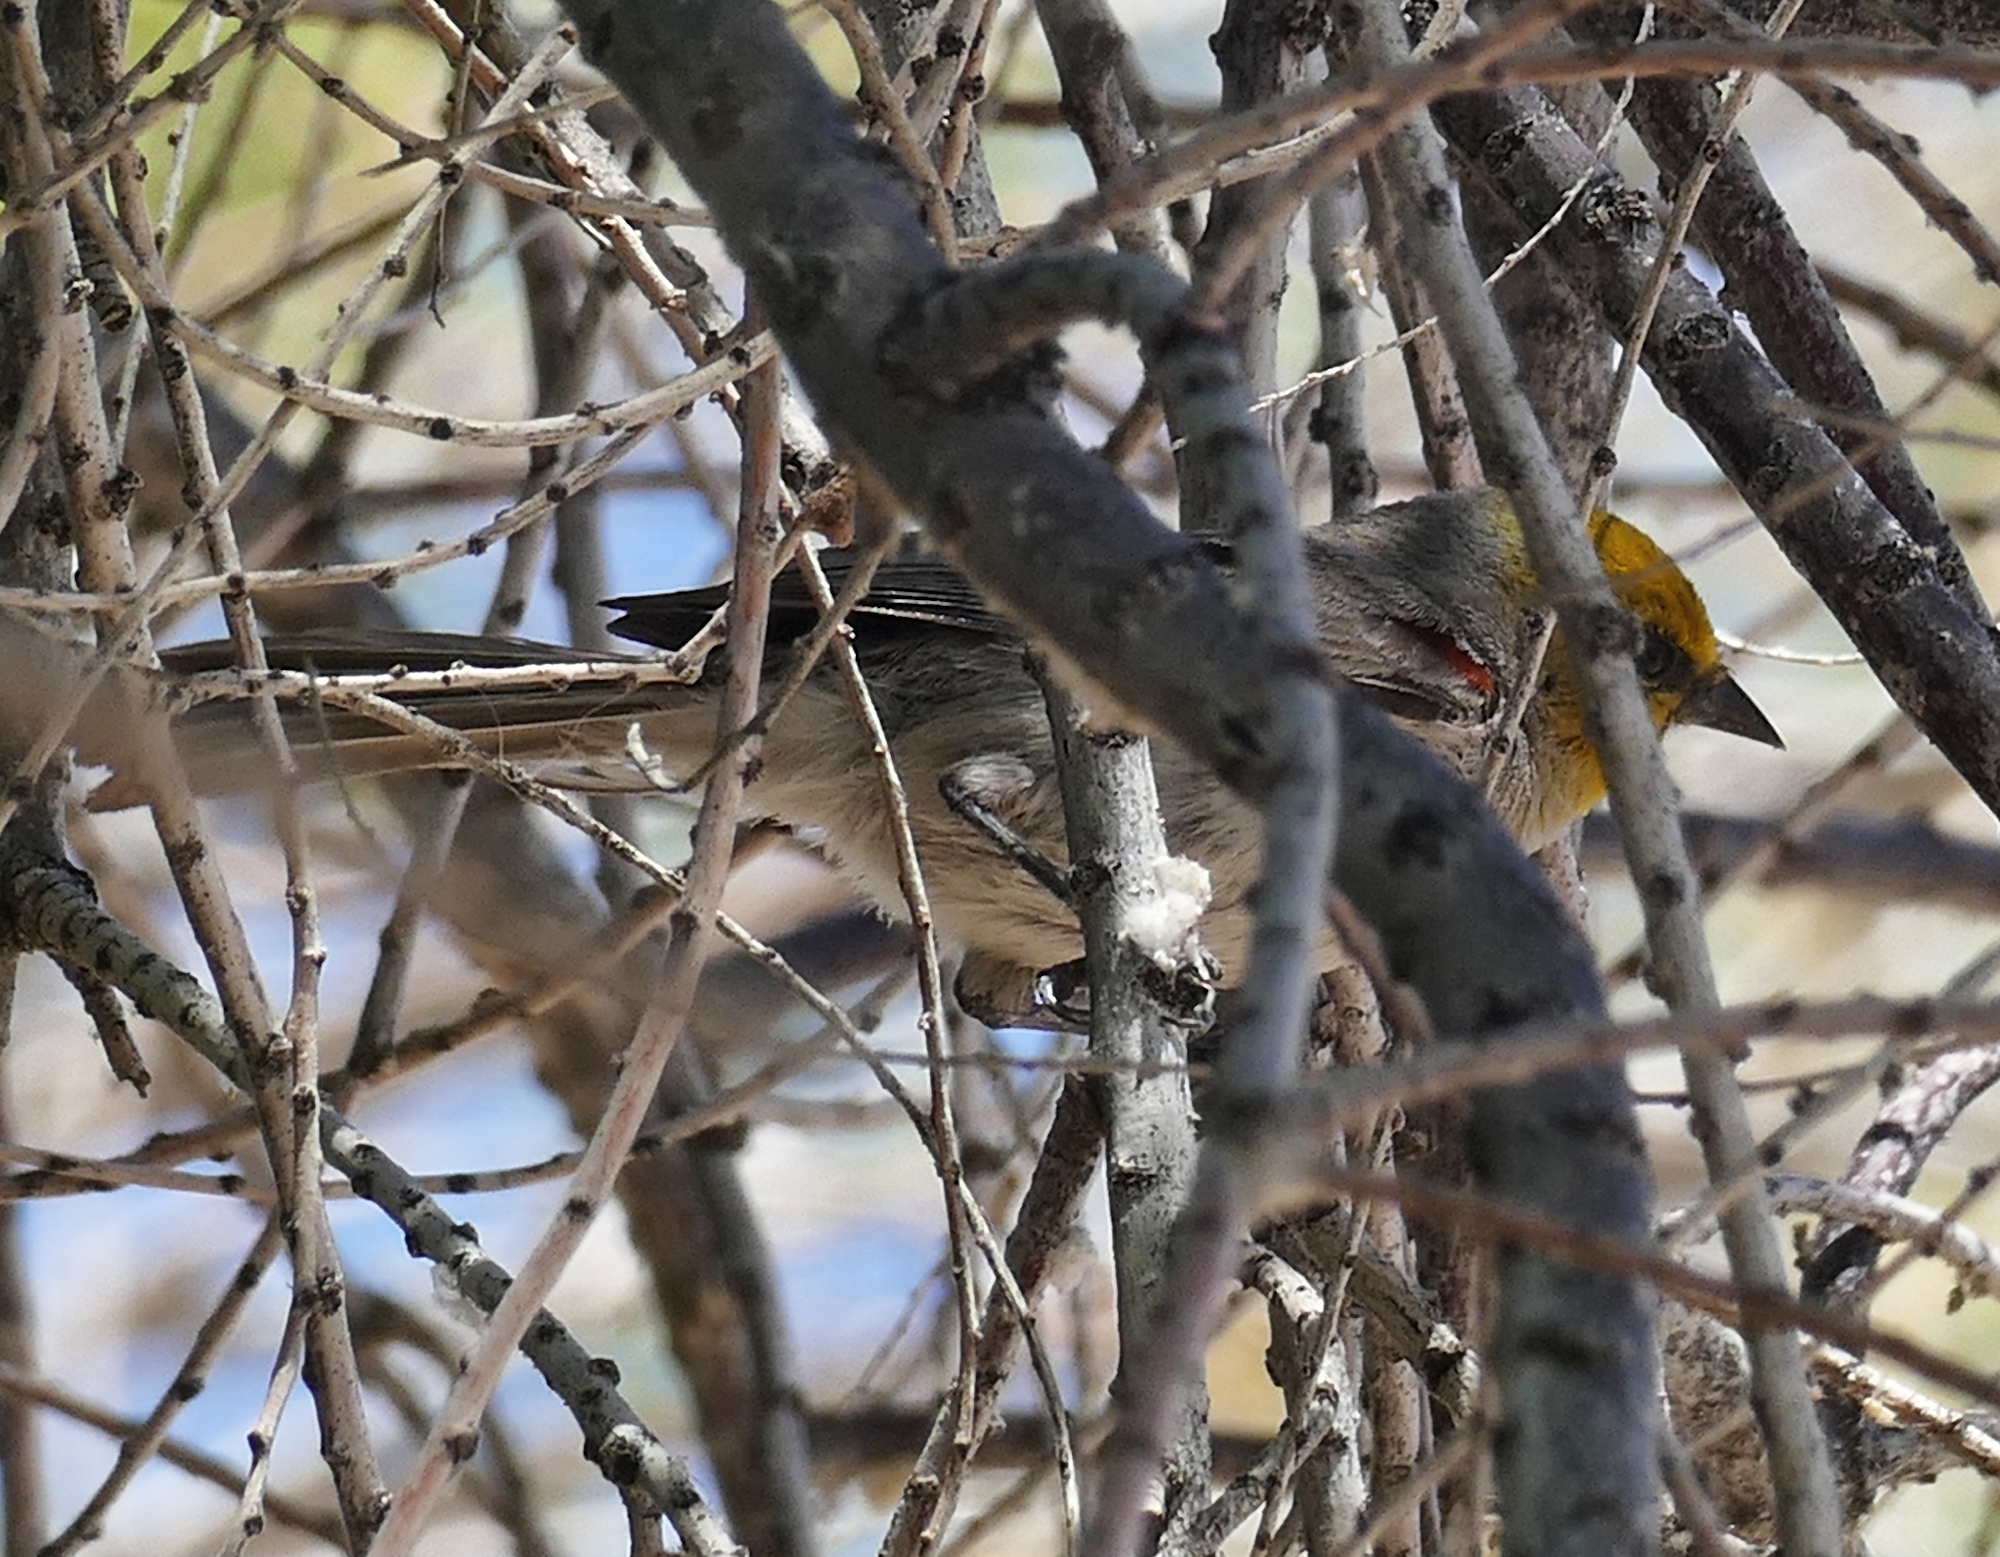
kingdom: Animalia
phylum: Chordata
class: Aves
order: Passeriformes
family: Remizidae
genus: Auriparus
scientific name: Auriparus flaviceps
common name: Verdin
